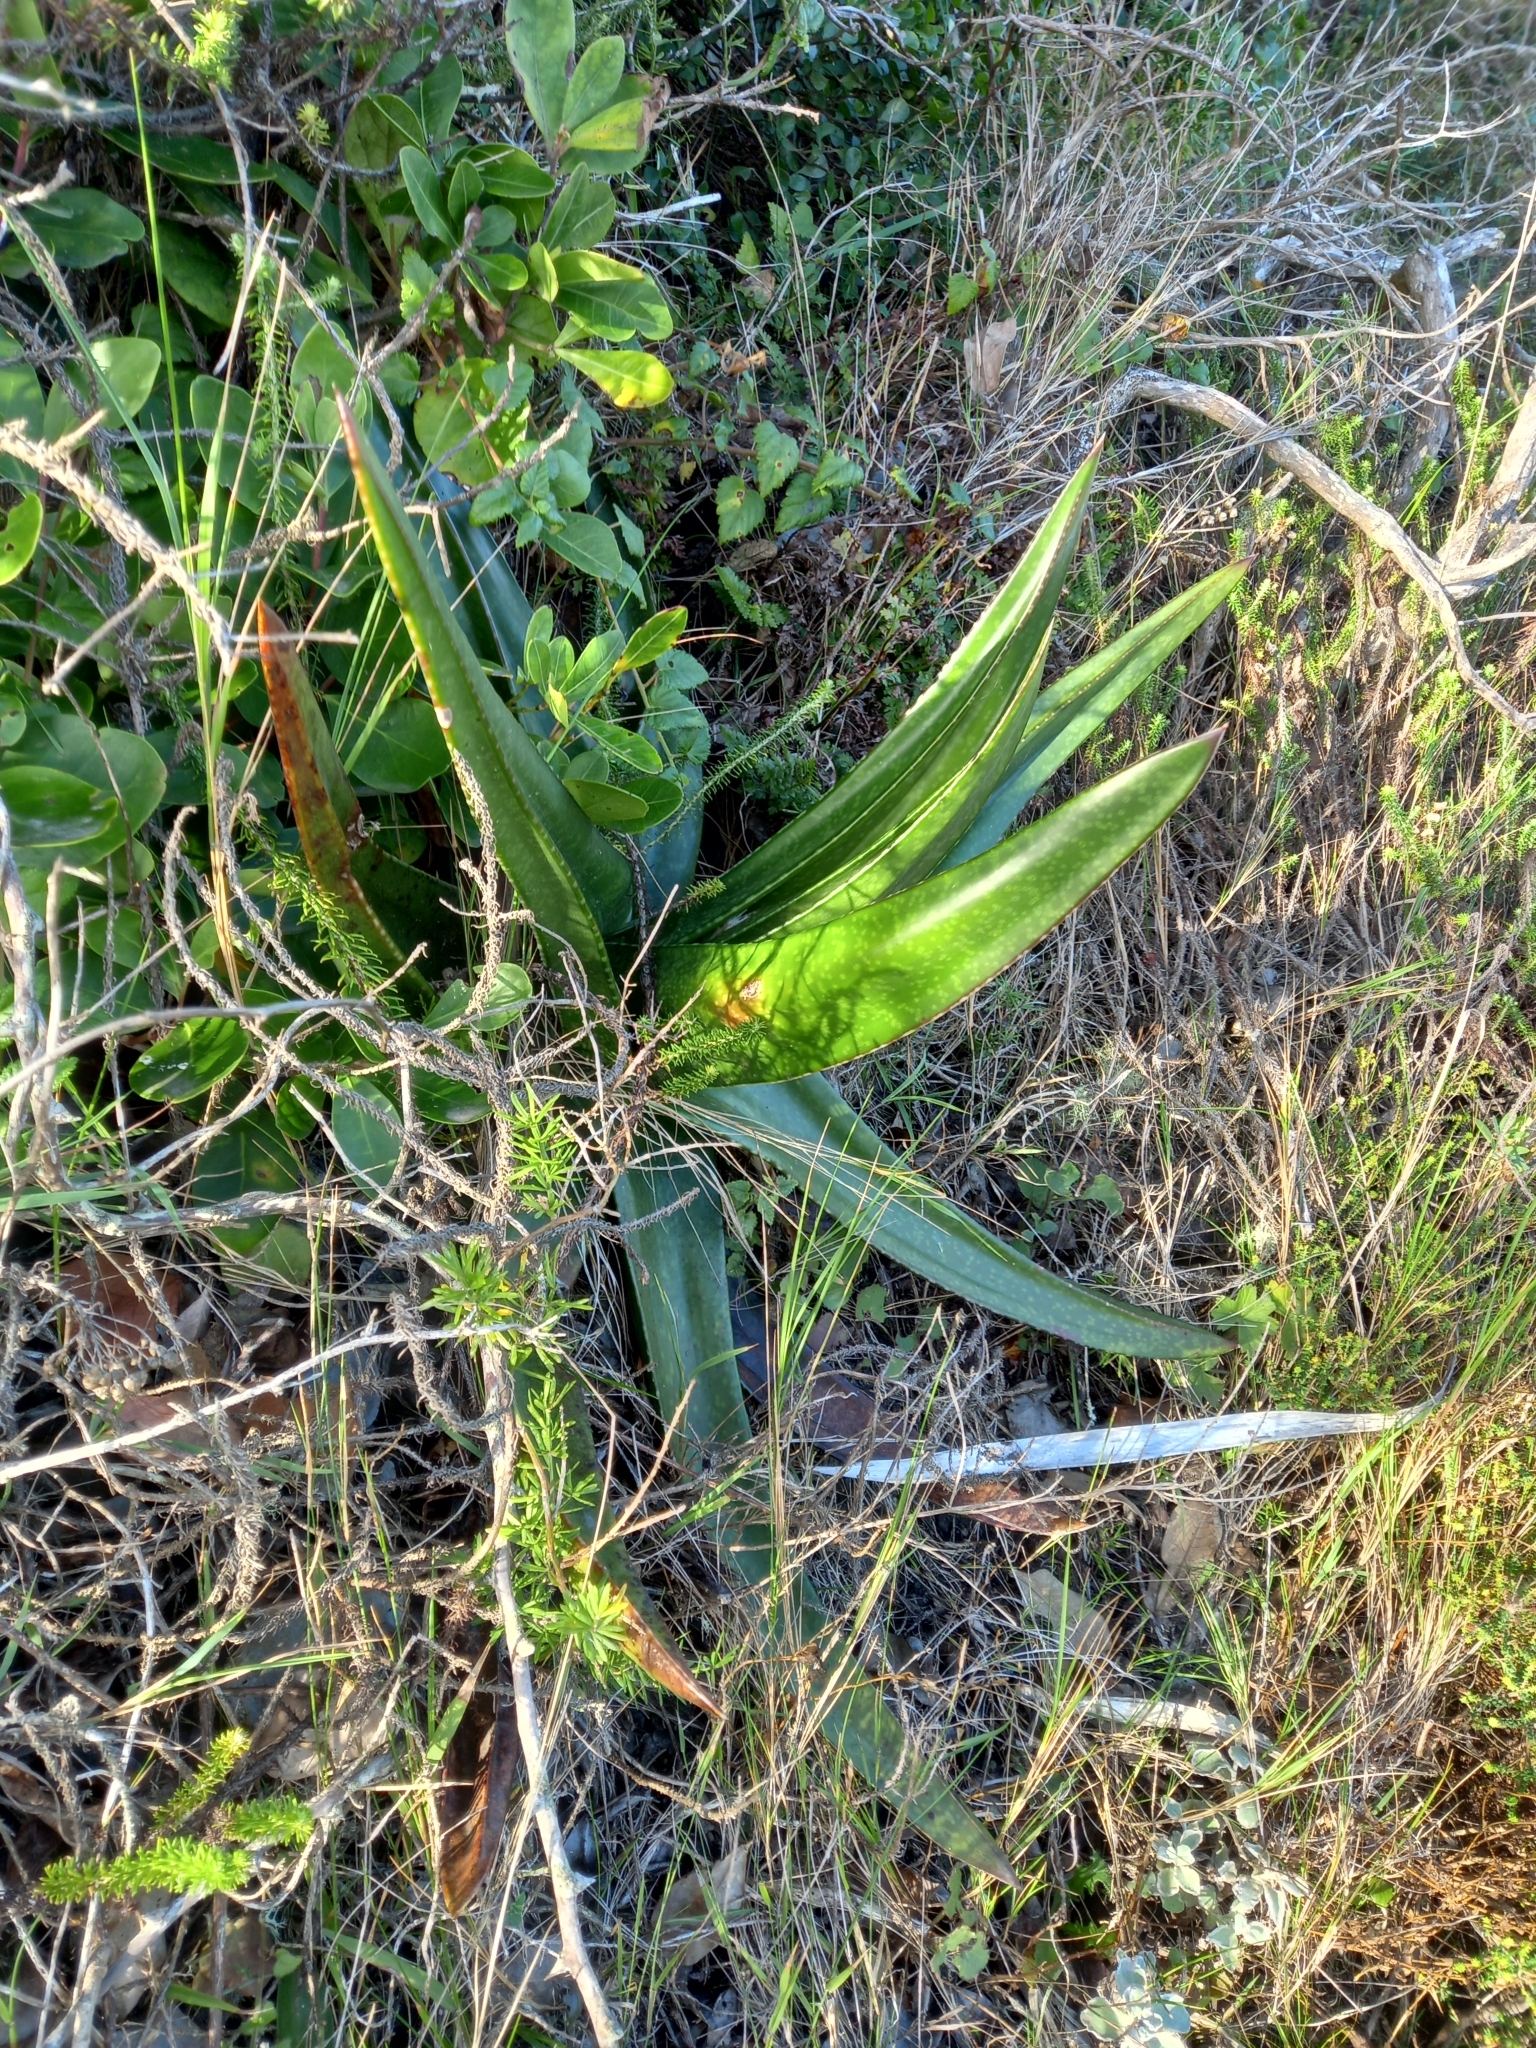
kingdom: Plantae
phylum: Tracheophyta
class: Liliopsida
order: Asparagales
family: Asphodelaceae
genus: Gasteria
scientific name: Gasteria acinacifolia
